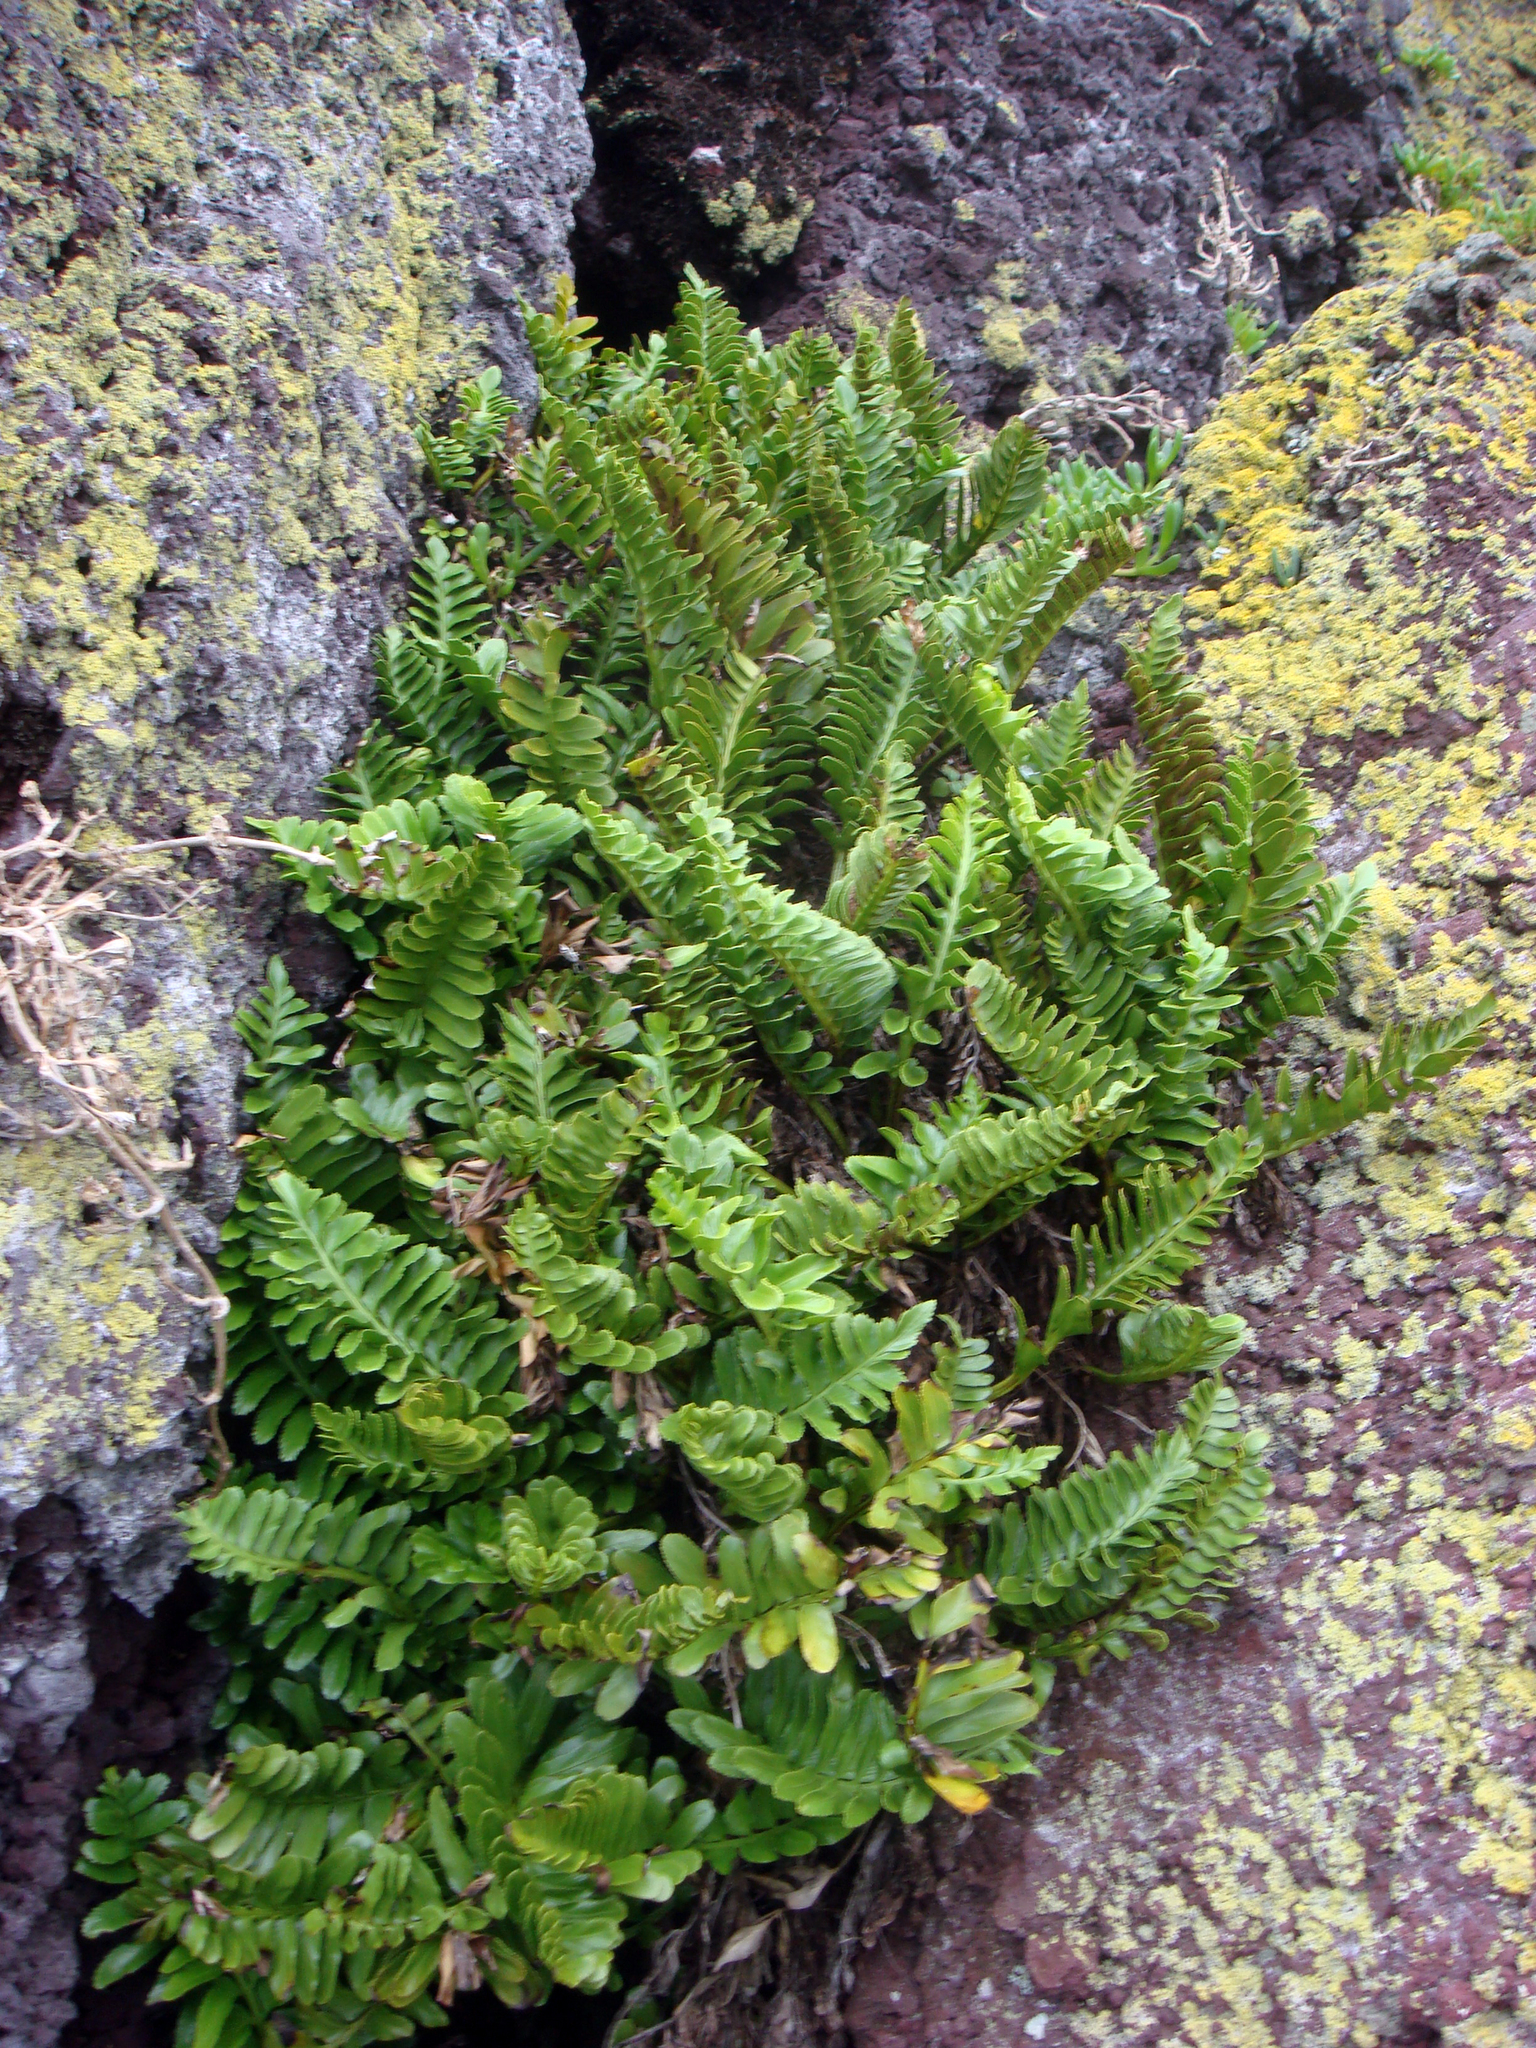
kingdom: Plantae
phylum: Tracheophyta
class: Polypodiopsida
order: Polypodiales
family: Aspleniaceae
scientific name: Aspleniaceae
